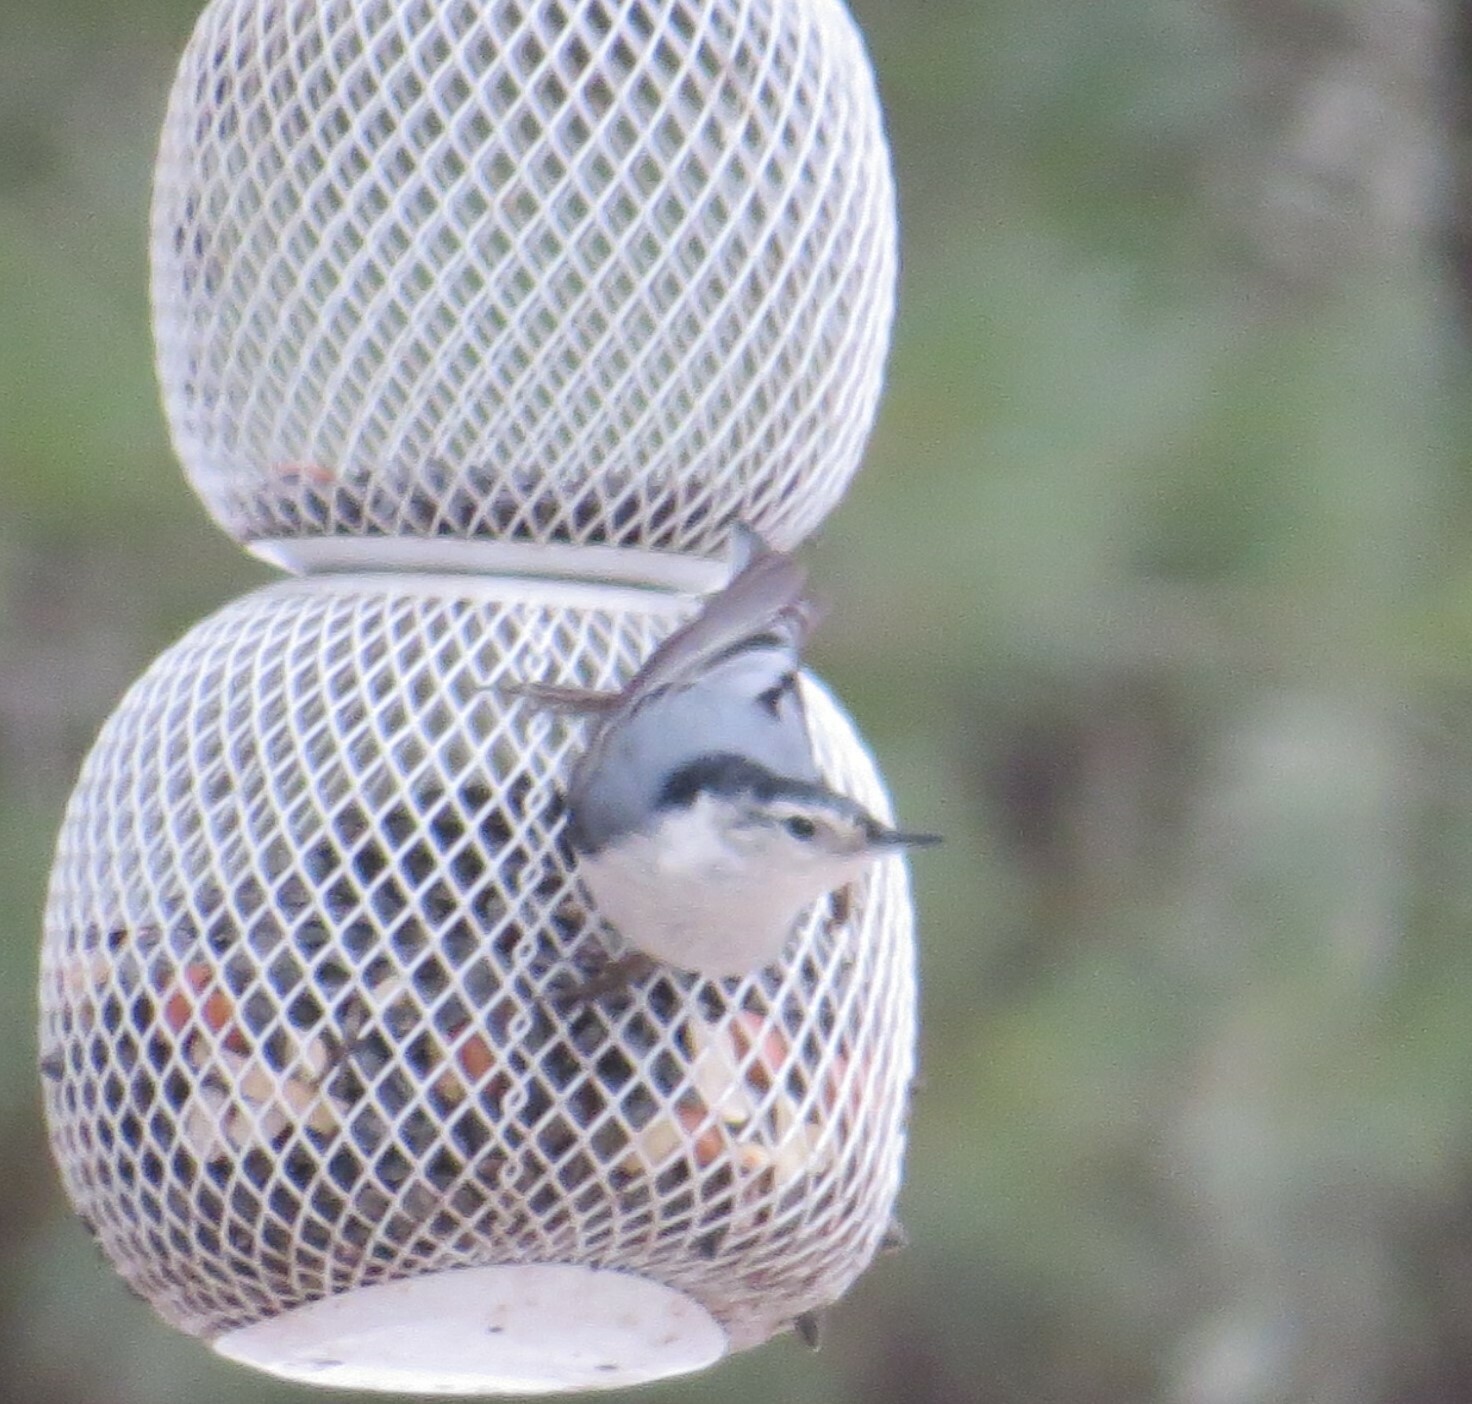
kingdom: Animalia
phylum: Chordata
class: Aves
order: Passeriformes
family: Sittidae
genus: Sitta
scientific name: Sitta carolinensis
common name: White-breasted nuthatch
